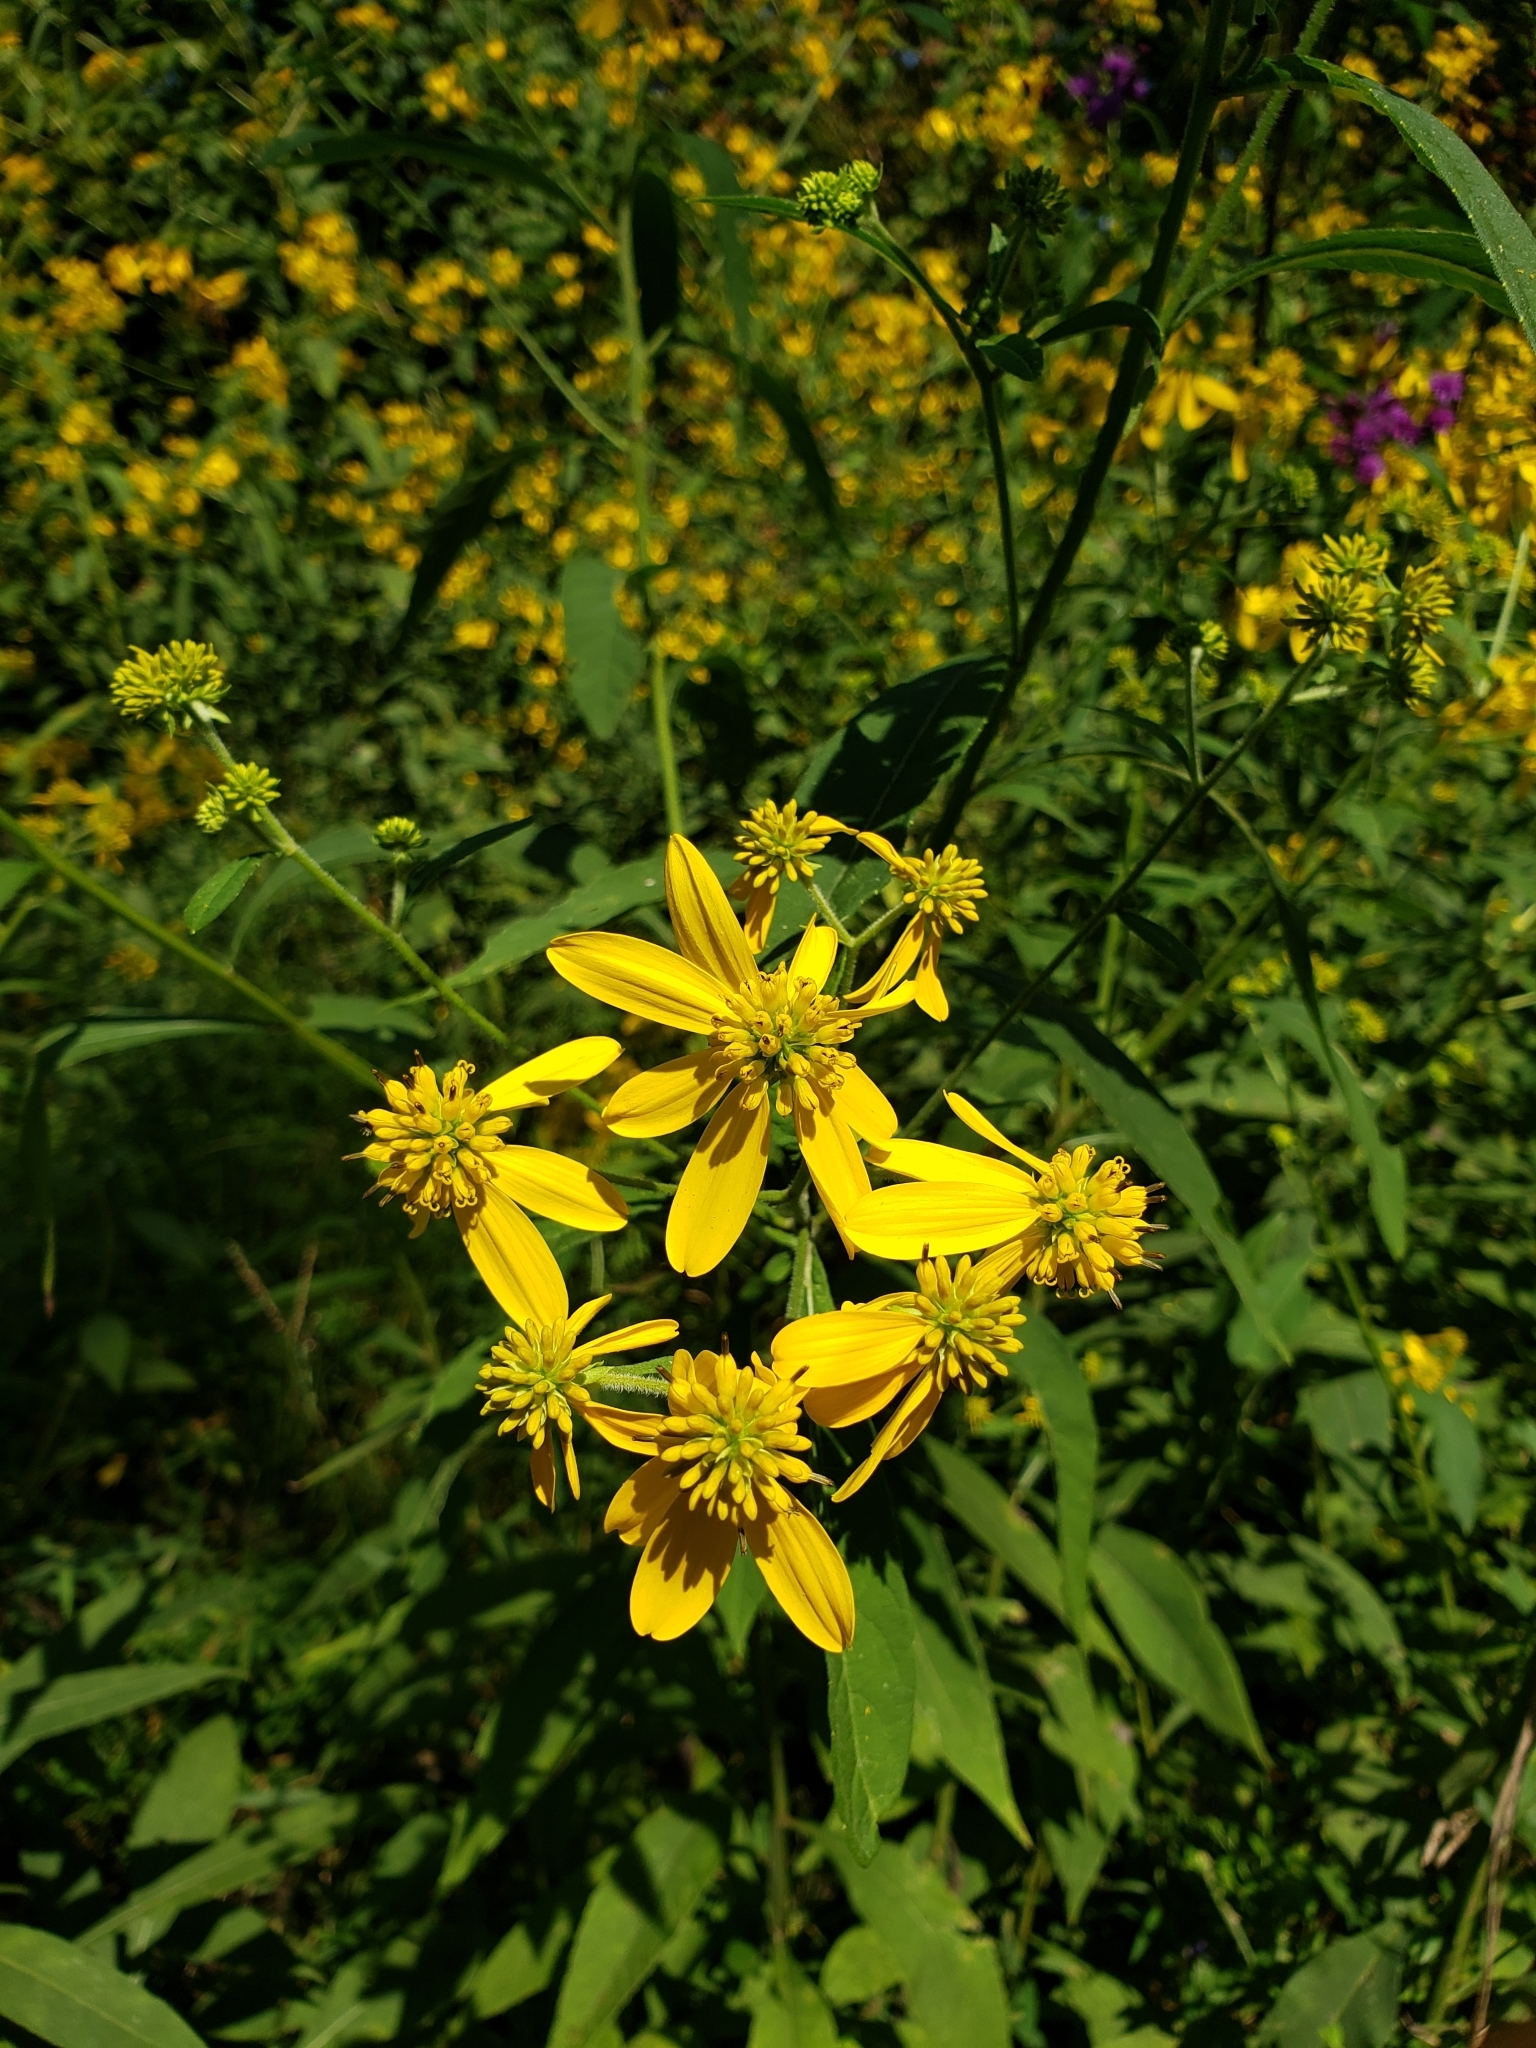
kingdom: Plantae
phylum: Tracheophyta
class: Magnoliopsida
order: Asterales
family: Asteraceae
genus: Verbesina
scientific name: Verbesina alternifolia
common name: Wingstem
